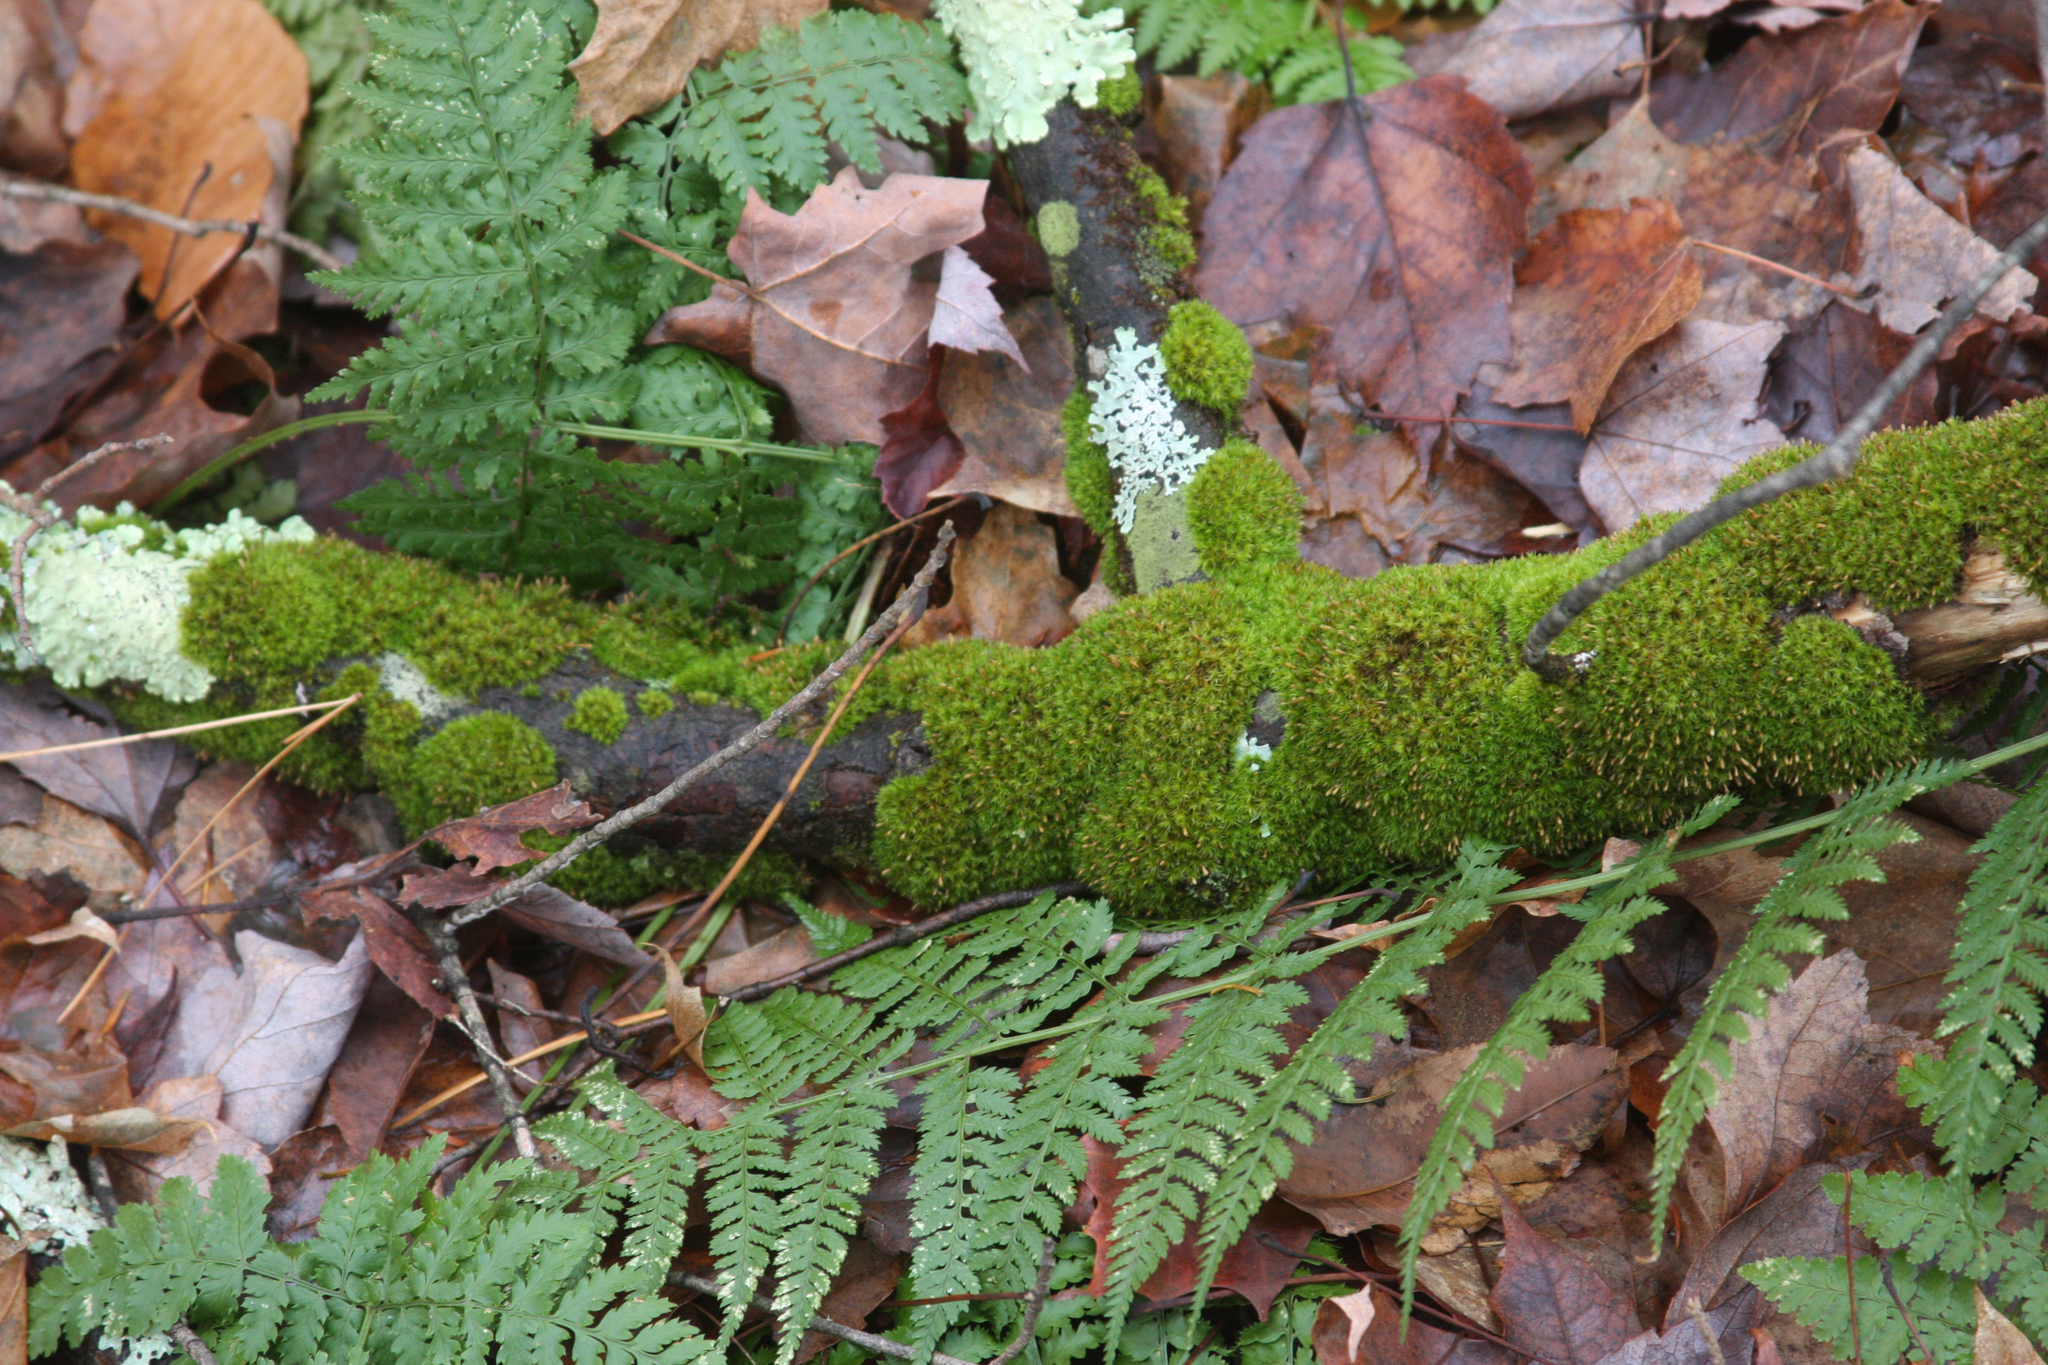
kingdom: Plantae
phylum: Bryophyta
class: Bryopsida
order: Orthotrichales
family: Orthotrichaceae
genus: Ulota
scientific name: Ulota crispa
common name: Crisped pincushion moss
